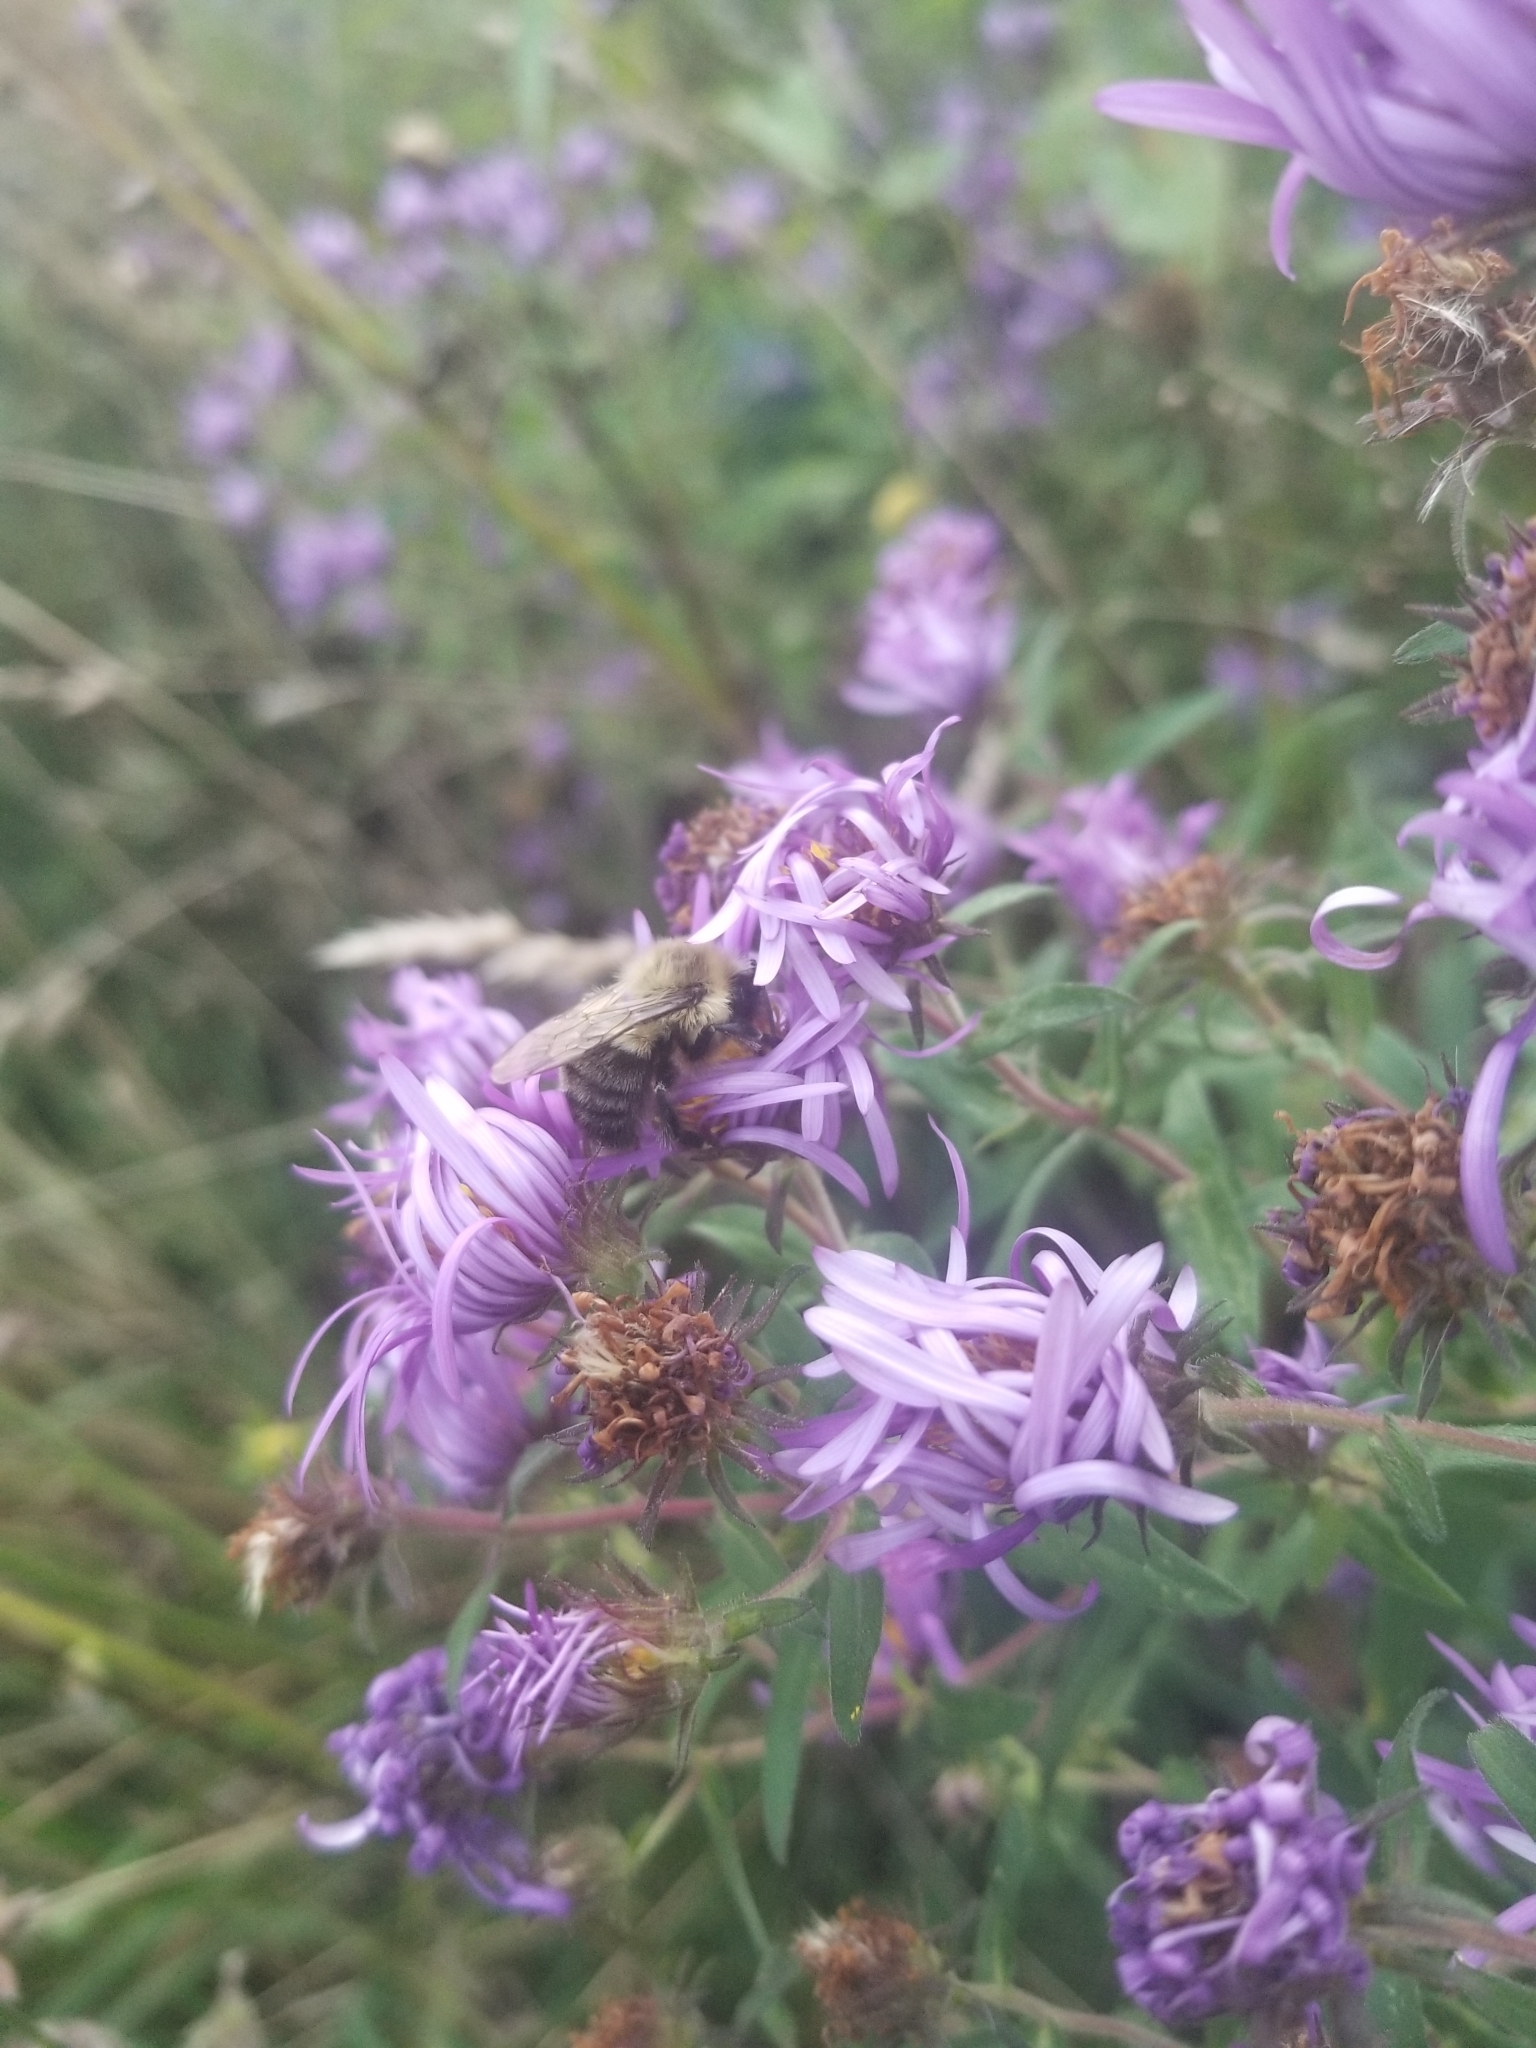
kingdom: Animalia
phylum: Arthropoda
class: Insecta
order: Hymenoptera
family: Apidae
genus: Bombus
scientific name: Bombus impatiens
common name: Common eastern bumble bee
